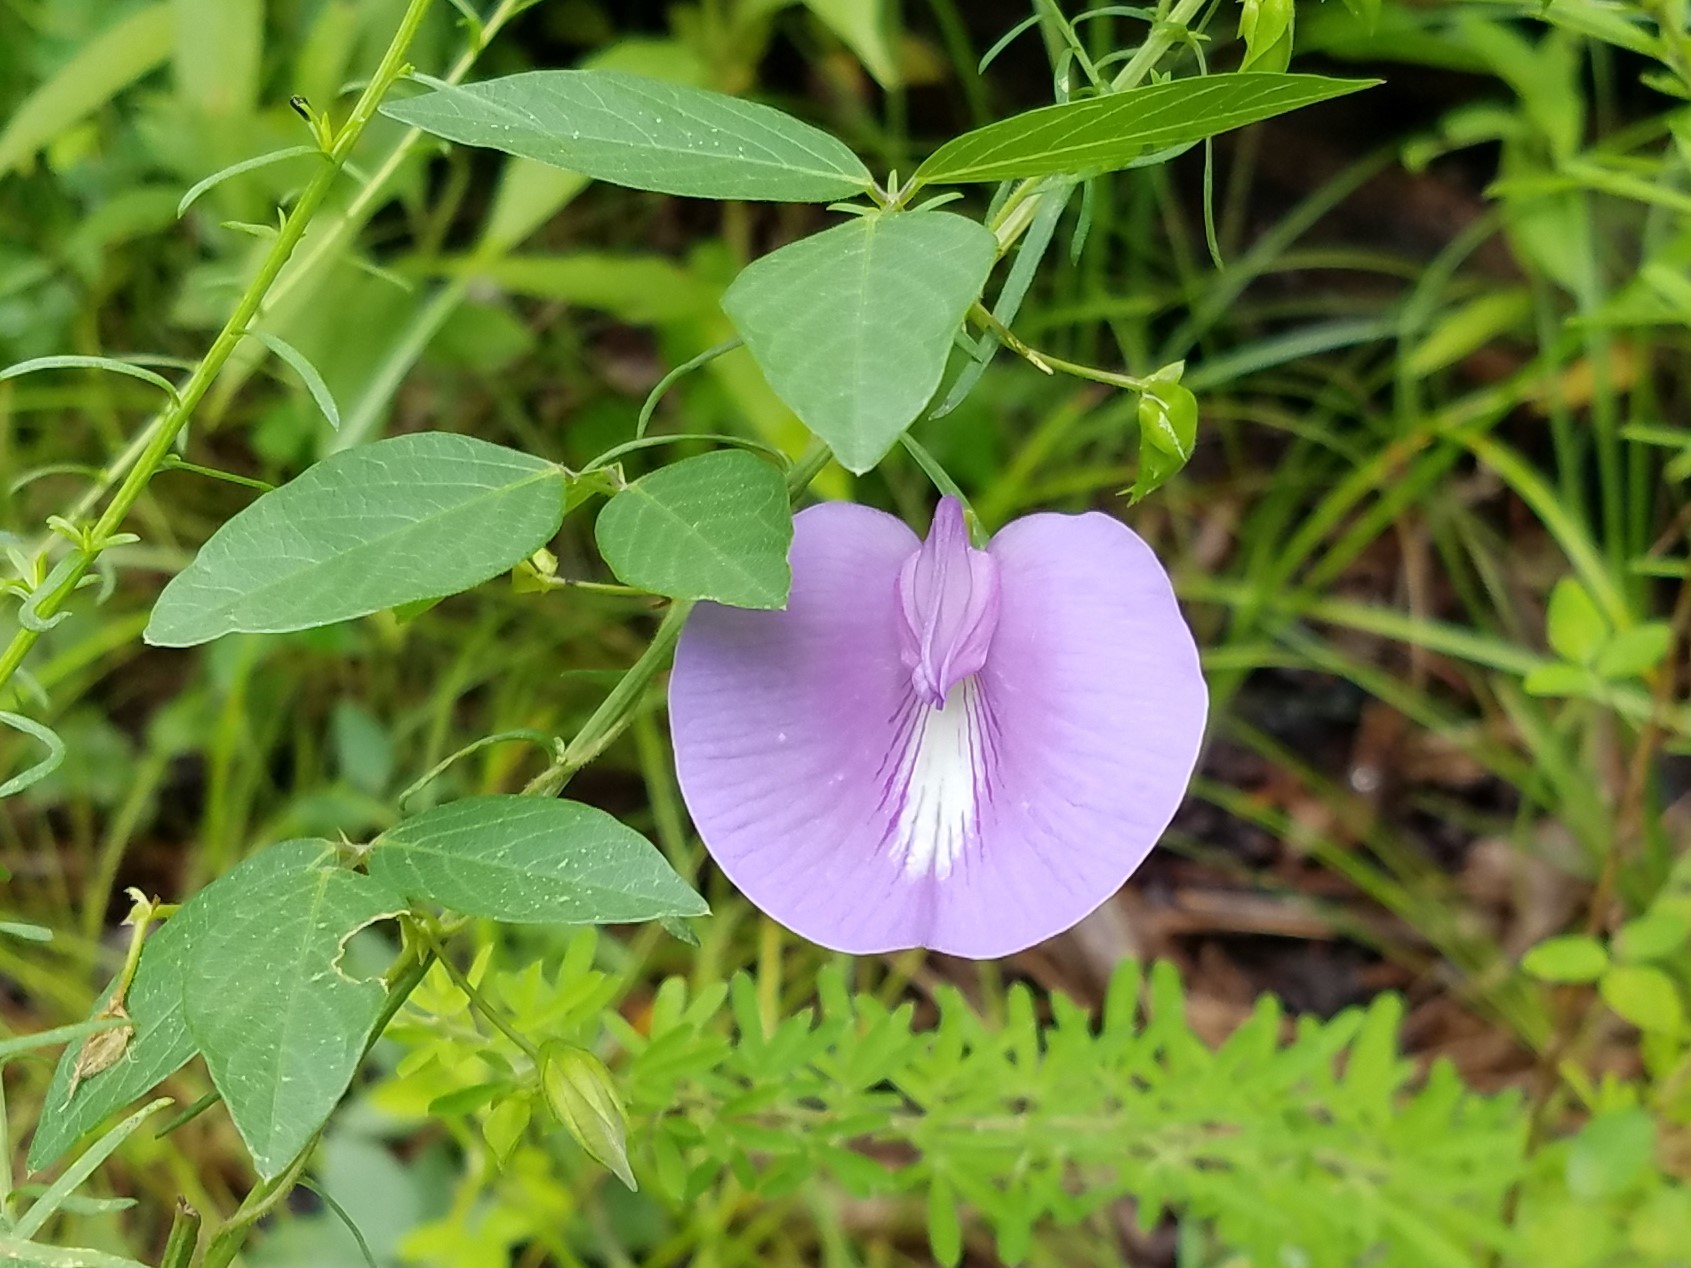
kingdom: Plantae
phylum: Tracheophyta
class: Magnoliopsida
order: Fabales
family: Fabaceae
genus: Centrosema
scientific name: Centrosema virginianum
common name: Butterfly-pea
